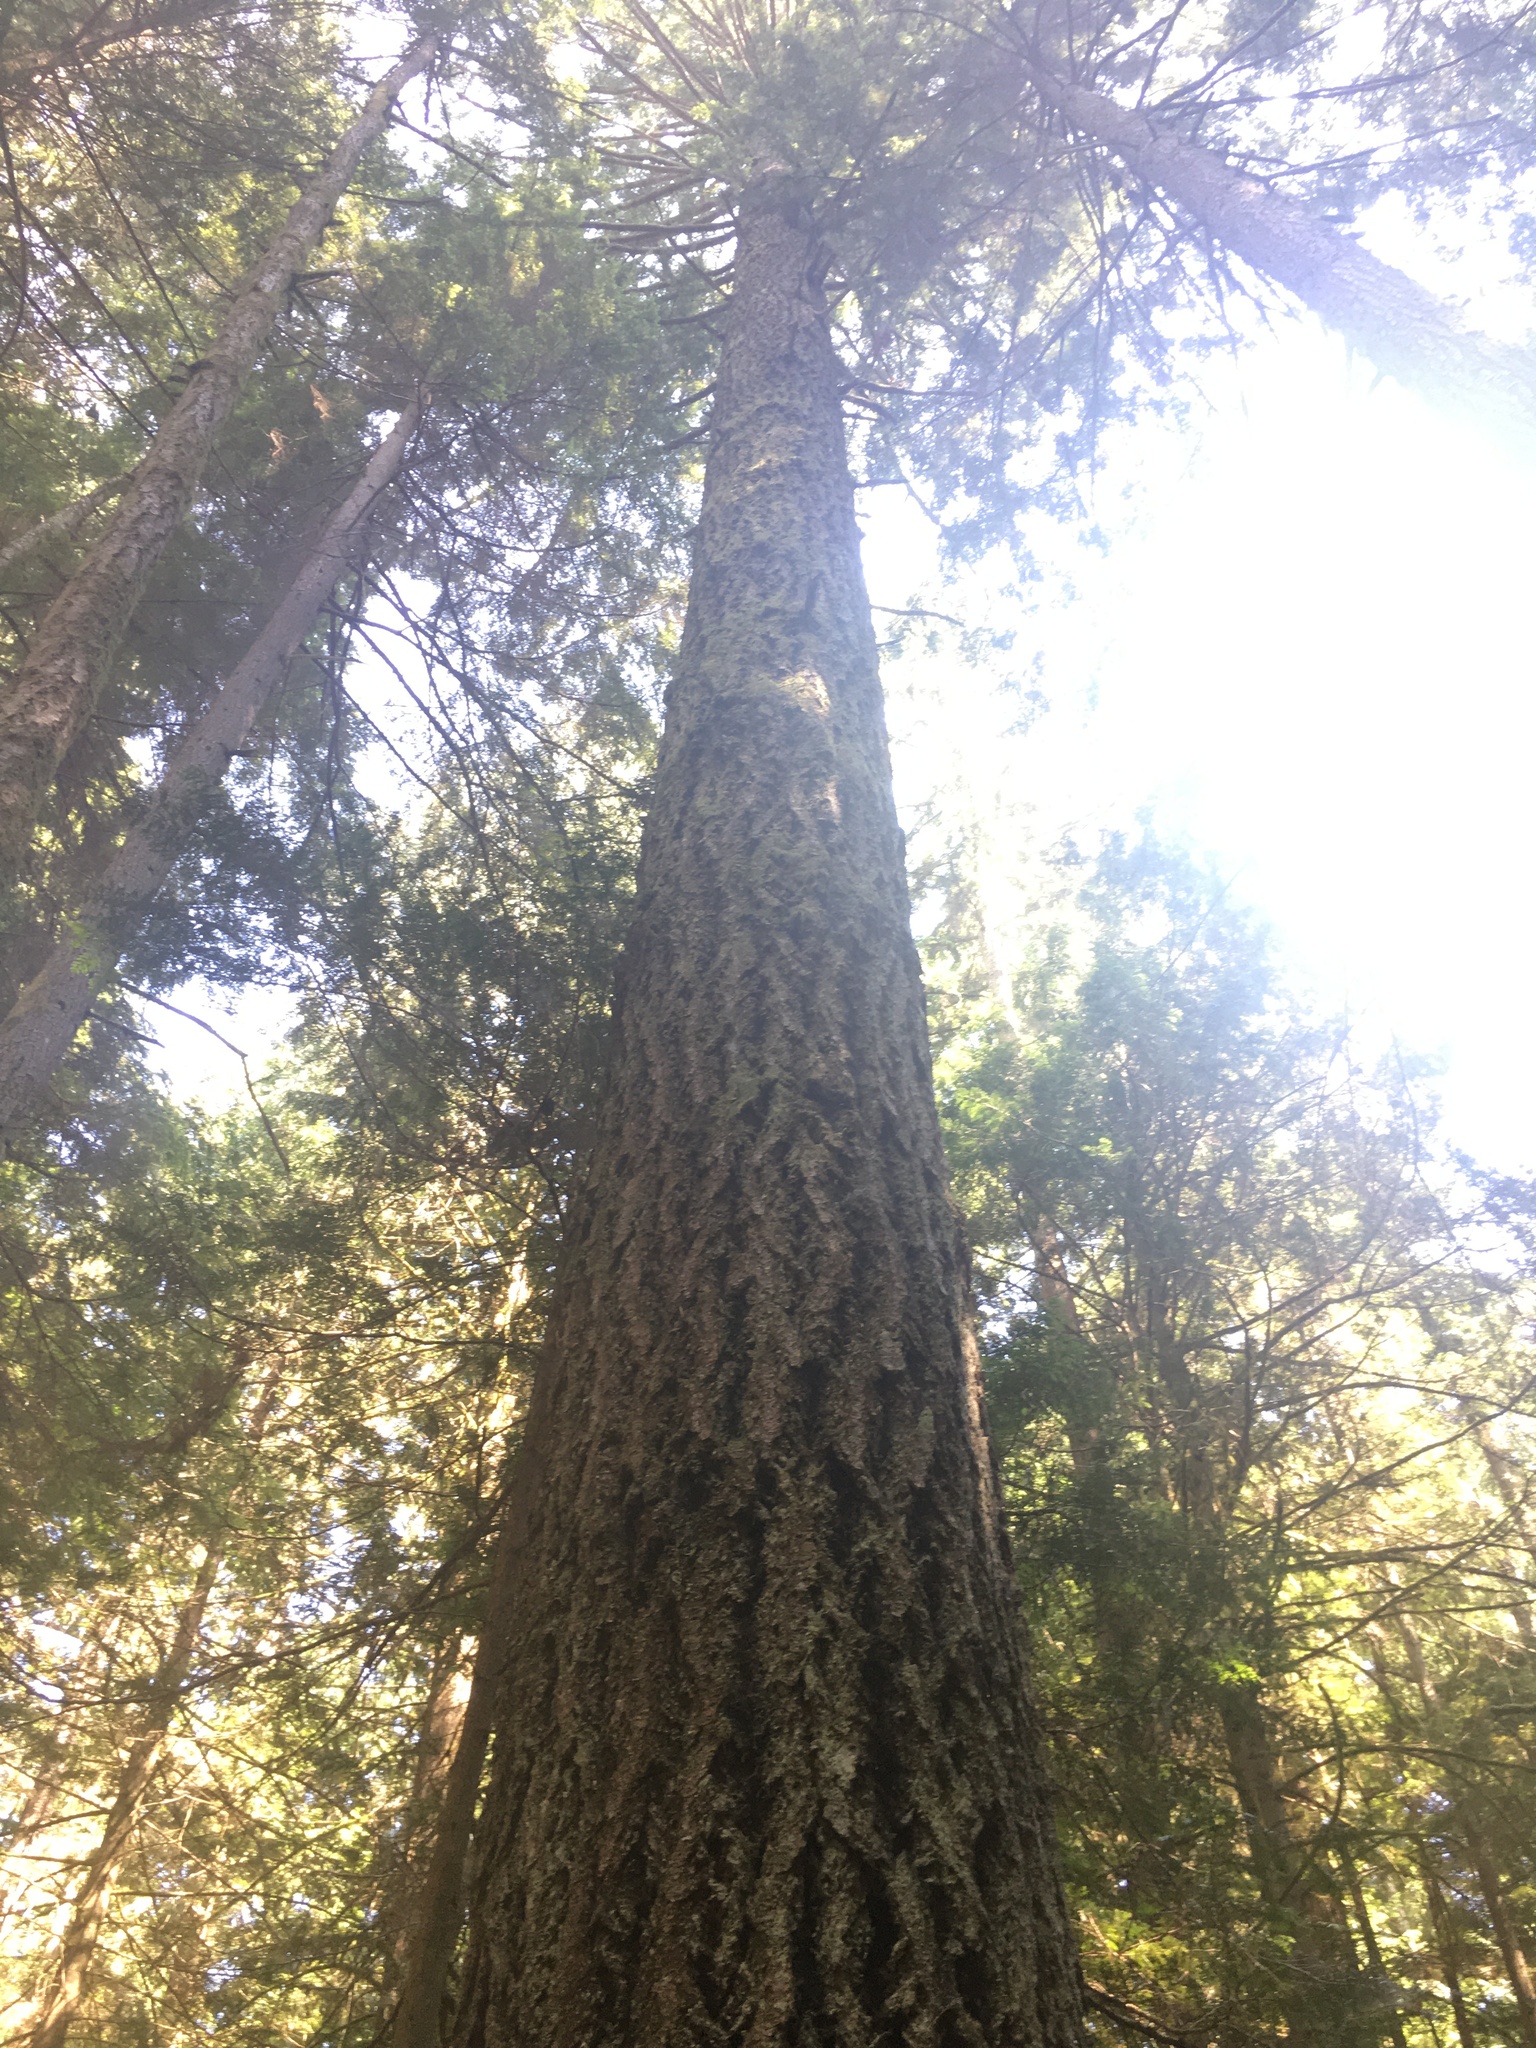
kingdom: Plantae
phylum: Tracheophyta
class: Pinopsida
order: Pinales
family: Pinaceae
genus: Pseudotsuga
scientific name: Pseudotsuga menziesii
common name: Douglas fir
